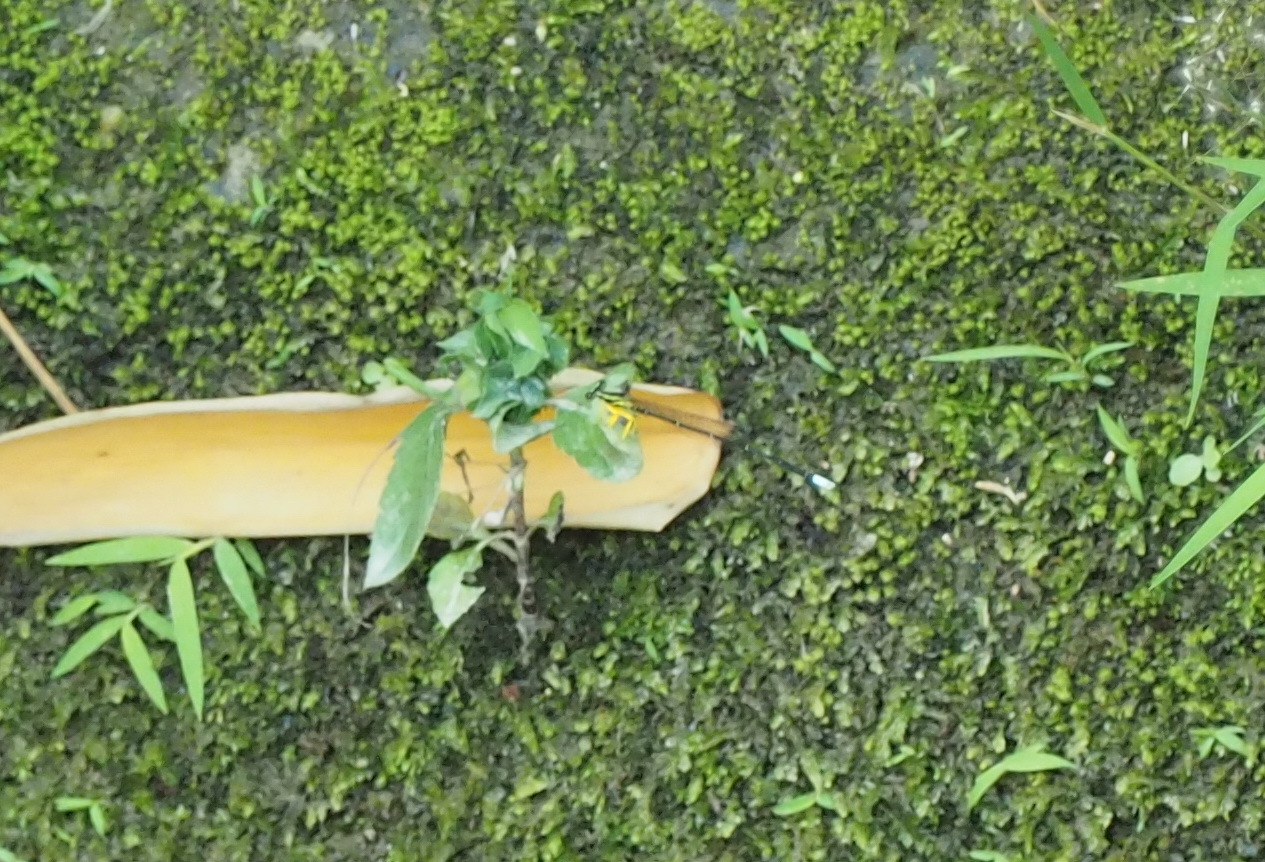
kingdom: Animalia
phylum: Arthropoda
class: Insecta
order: Odonata
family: Platycnemididae
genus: Copera
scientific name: Copera marginipes
